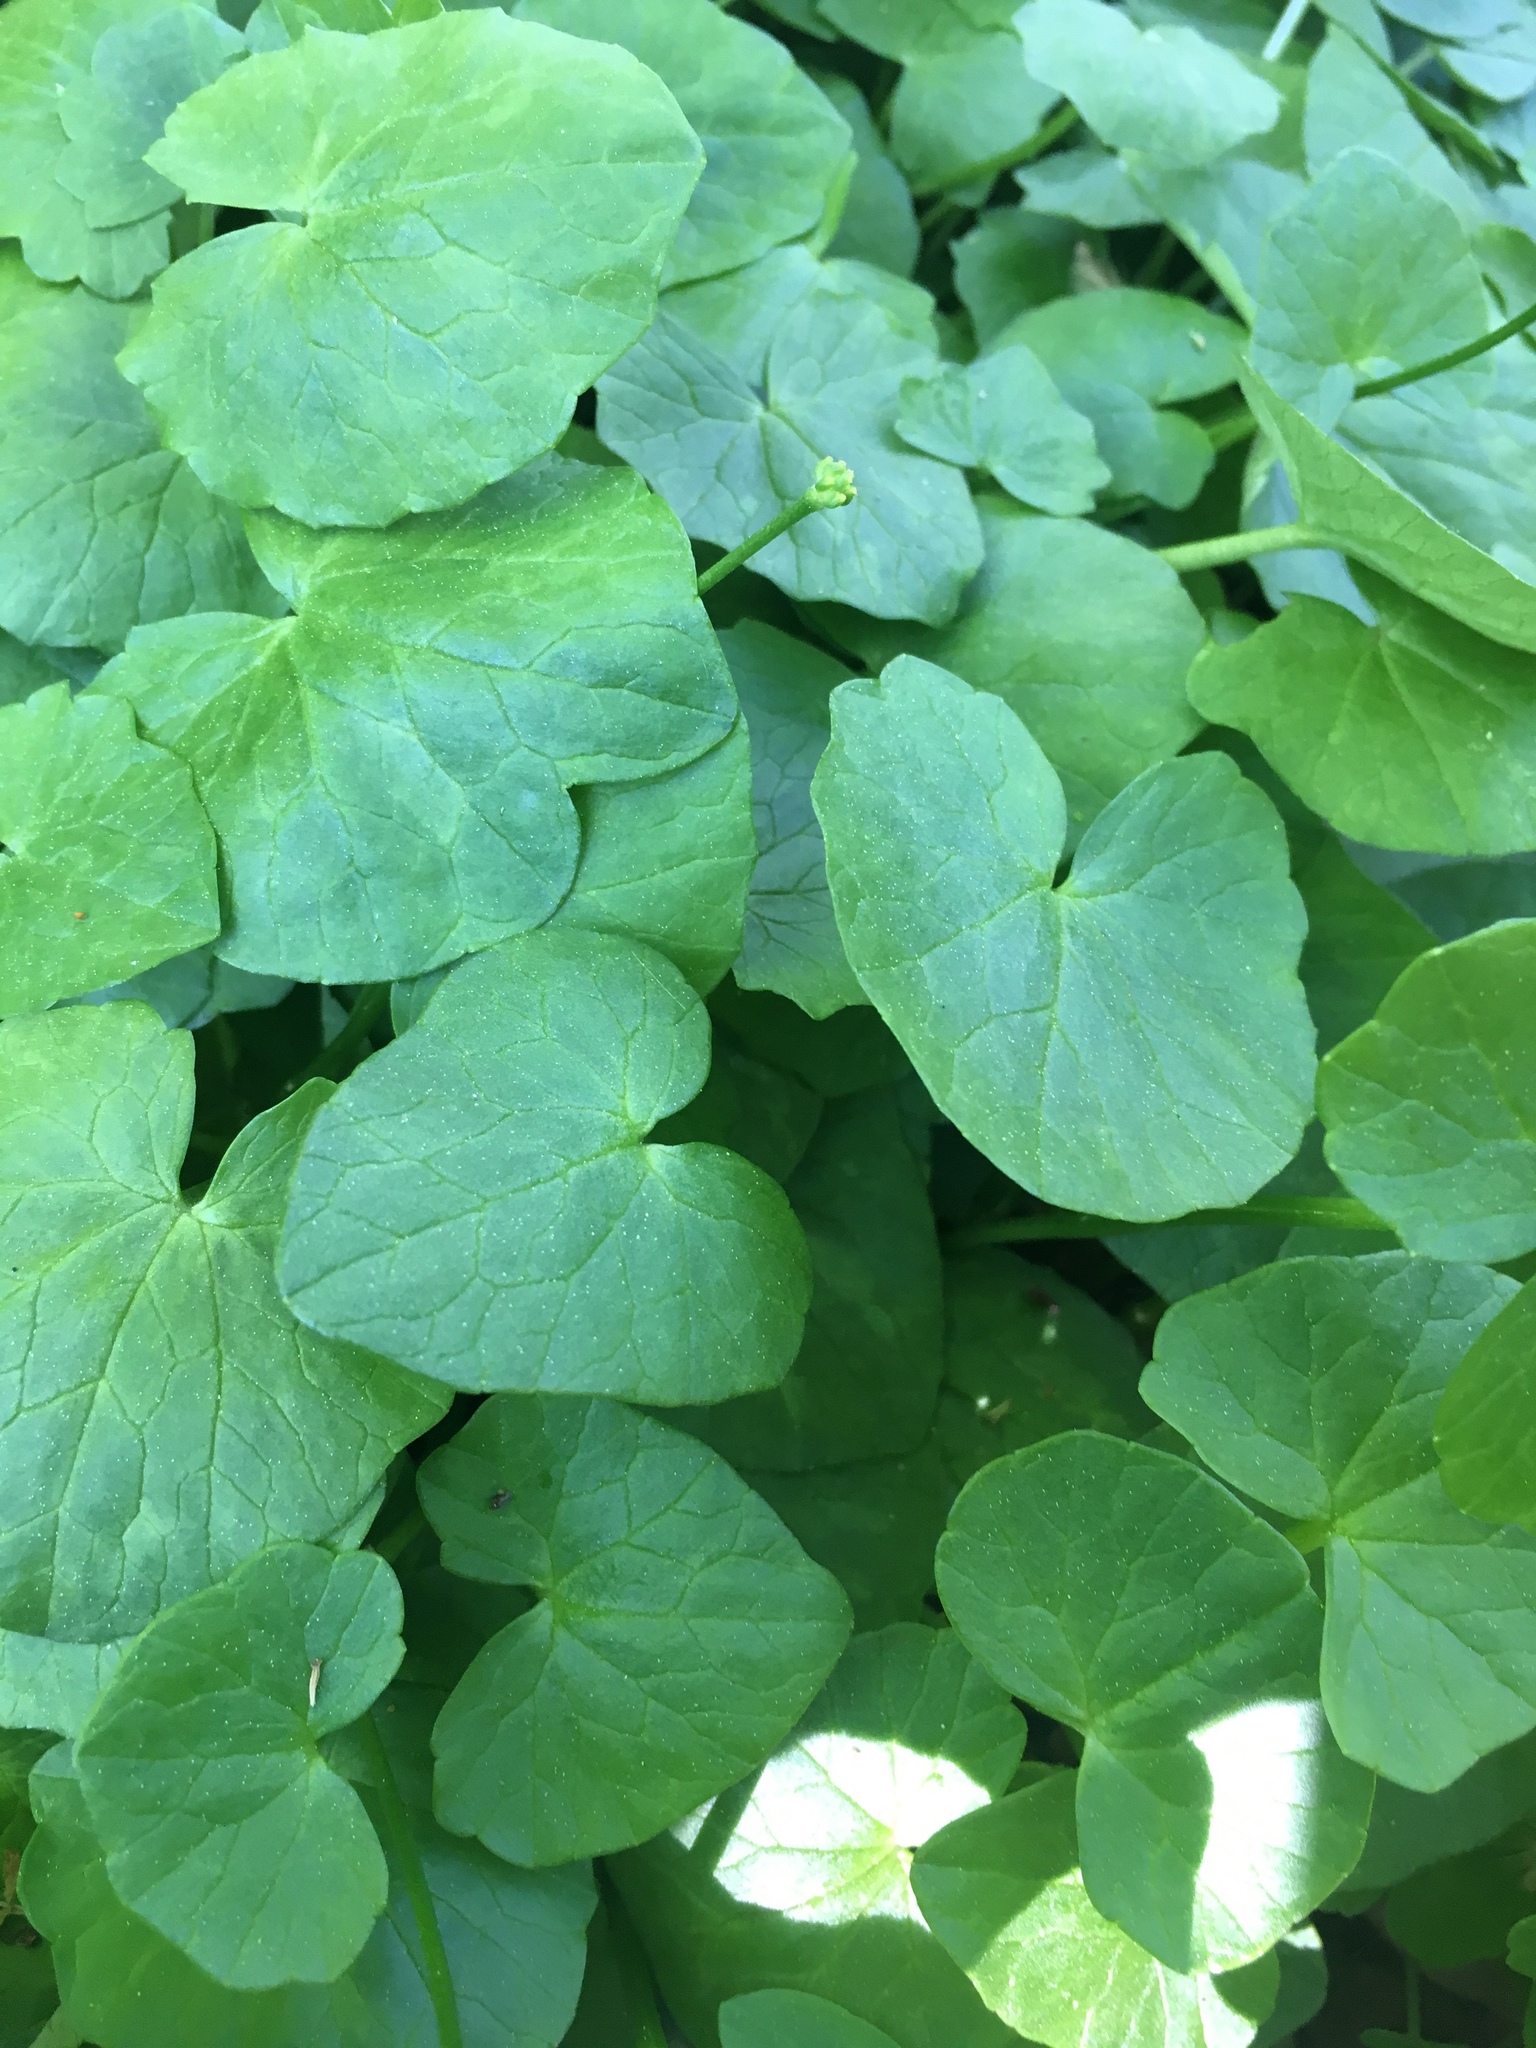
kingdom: Plantae
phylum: Tracheophyta
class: Magnoliopsida
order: Ranunculales
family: Ranunculaceae
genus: Ficaria
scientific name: Ficaria verna
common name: Lesser celandine
